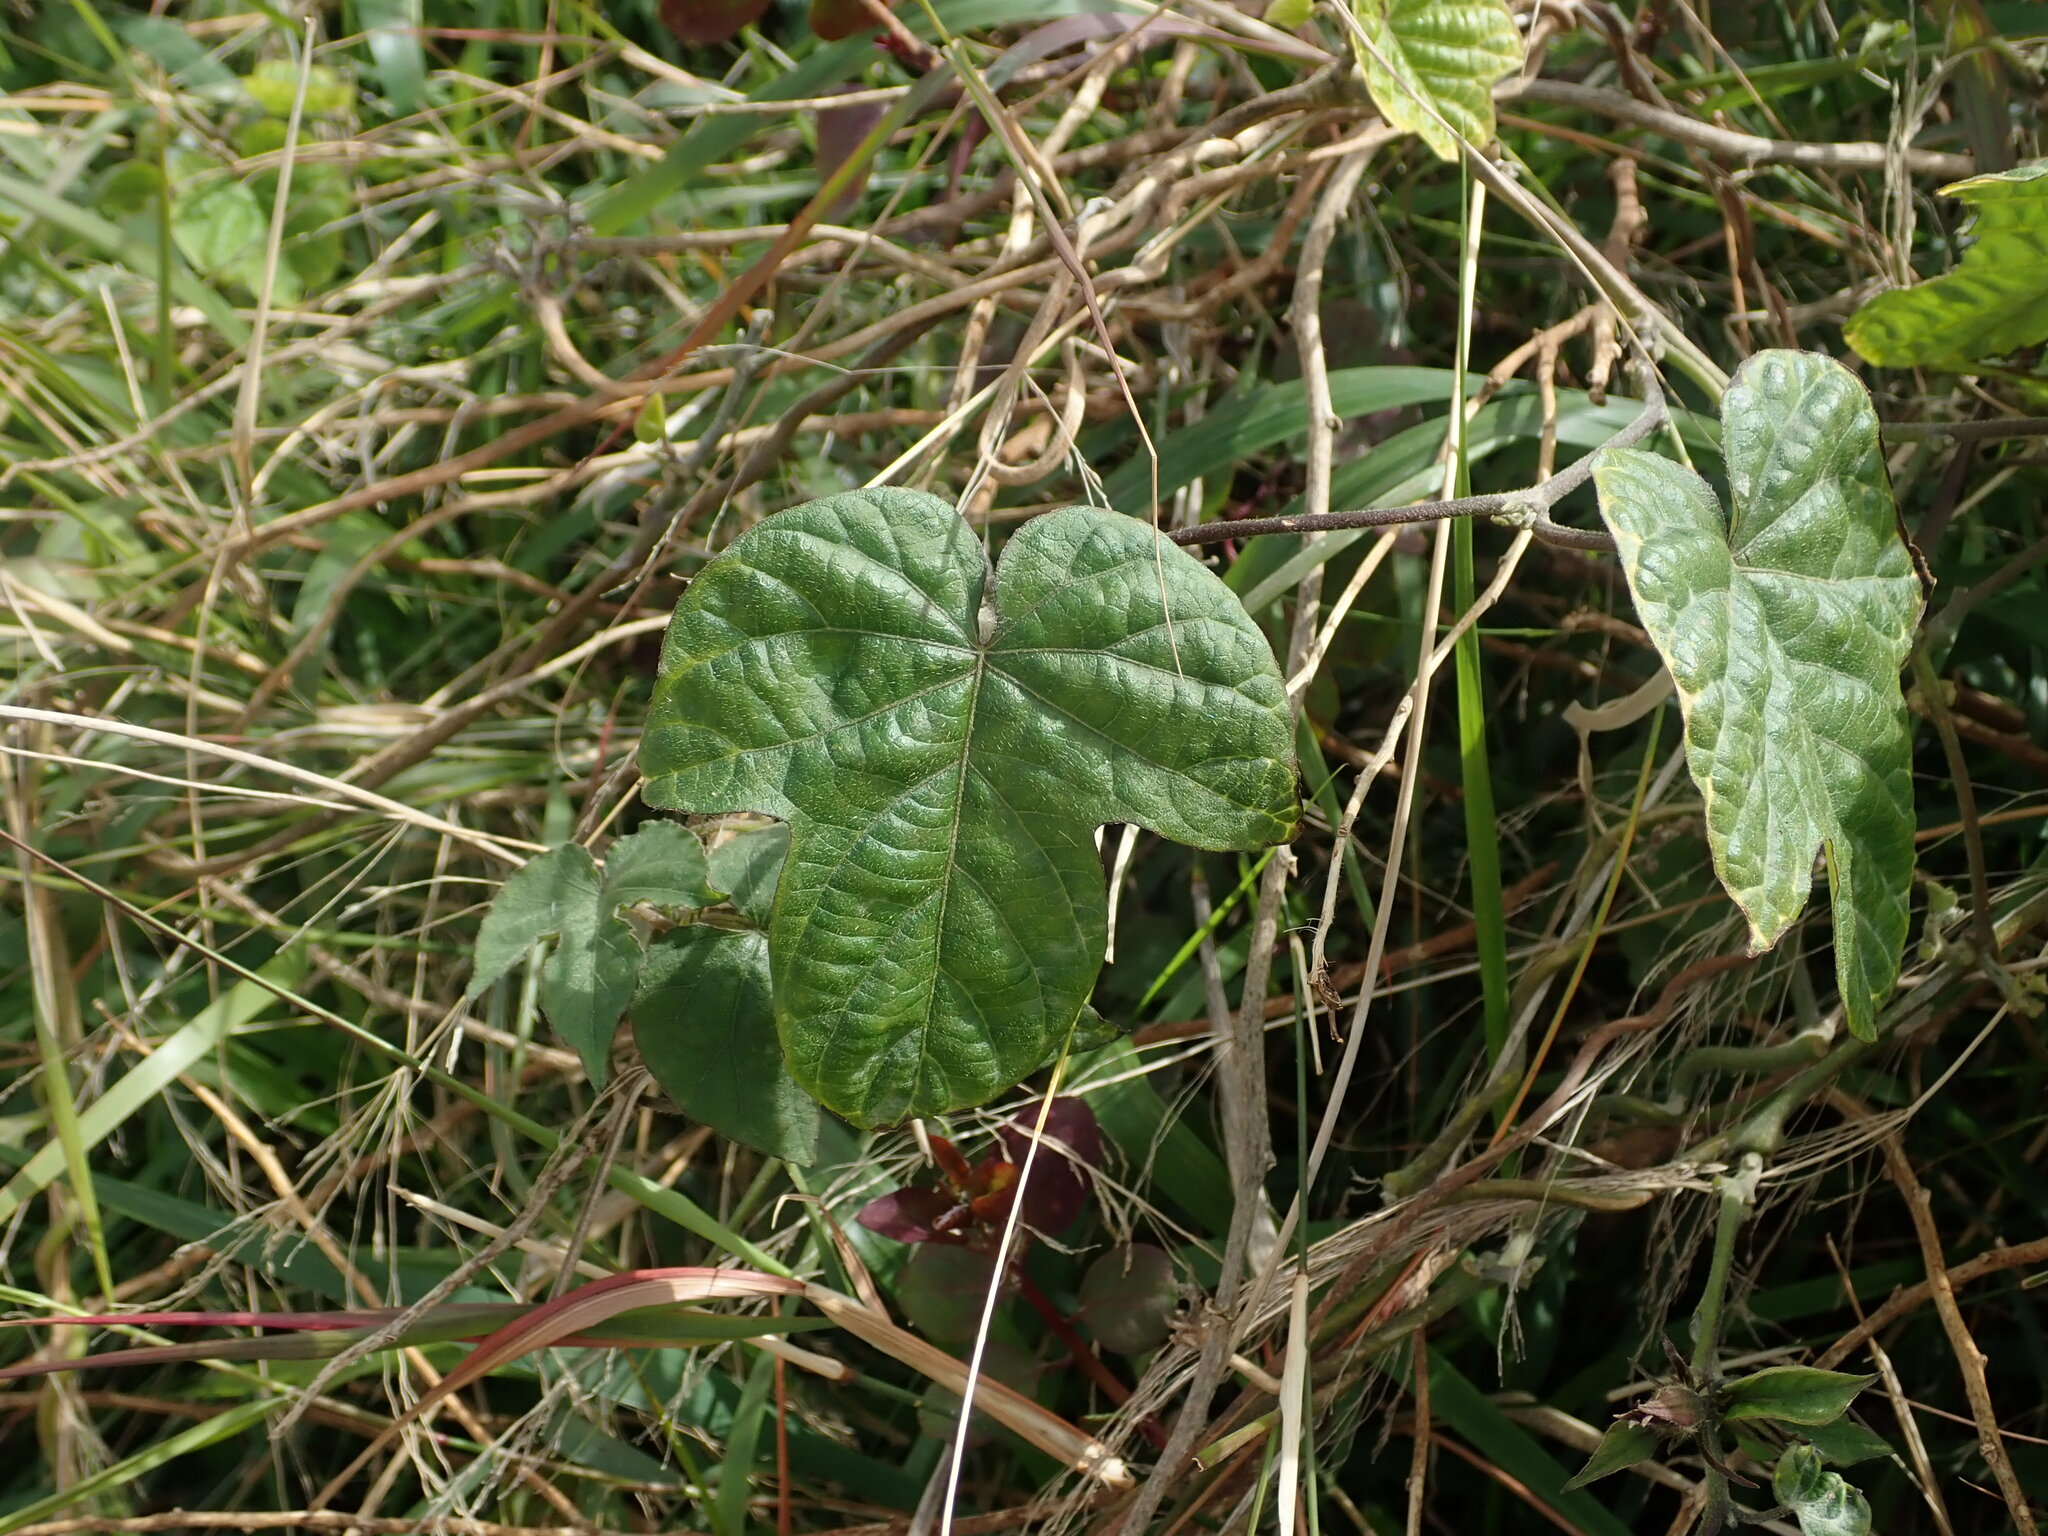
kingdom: Plantae
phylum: Tracheophyta
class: Magnoliopsida
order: Solanales
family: Convolvulaceae
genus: Ipomoea
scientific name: Ipomoea indica
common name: Blue dawnflower
